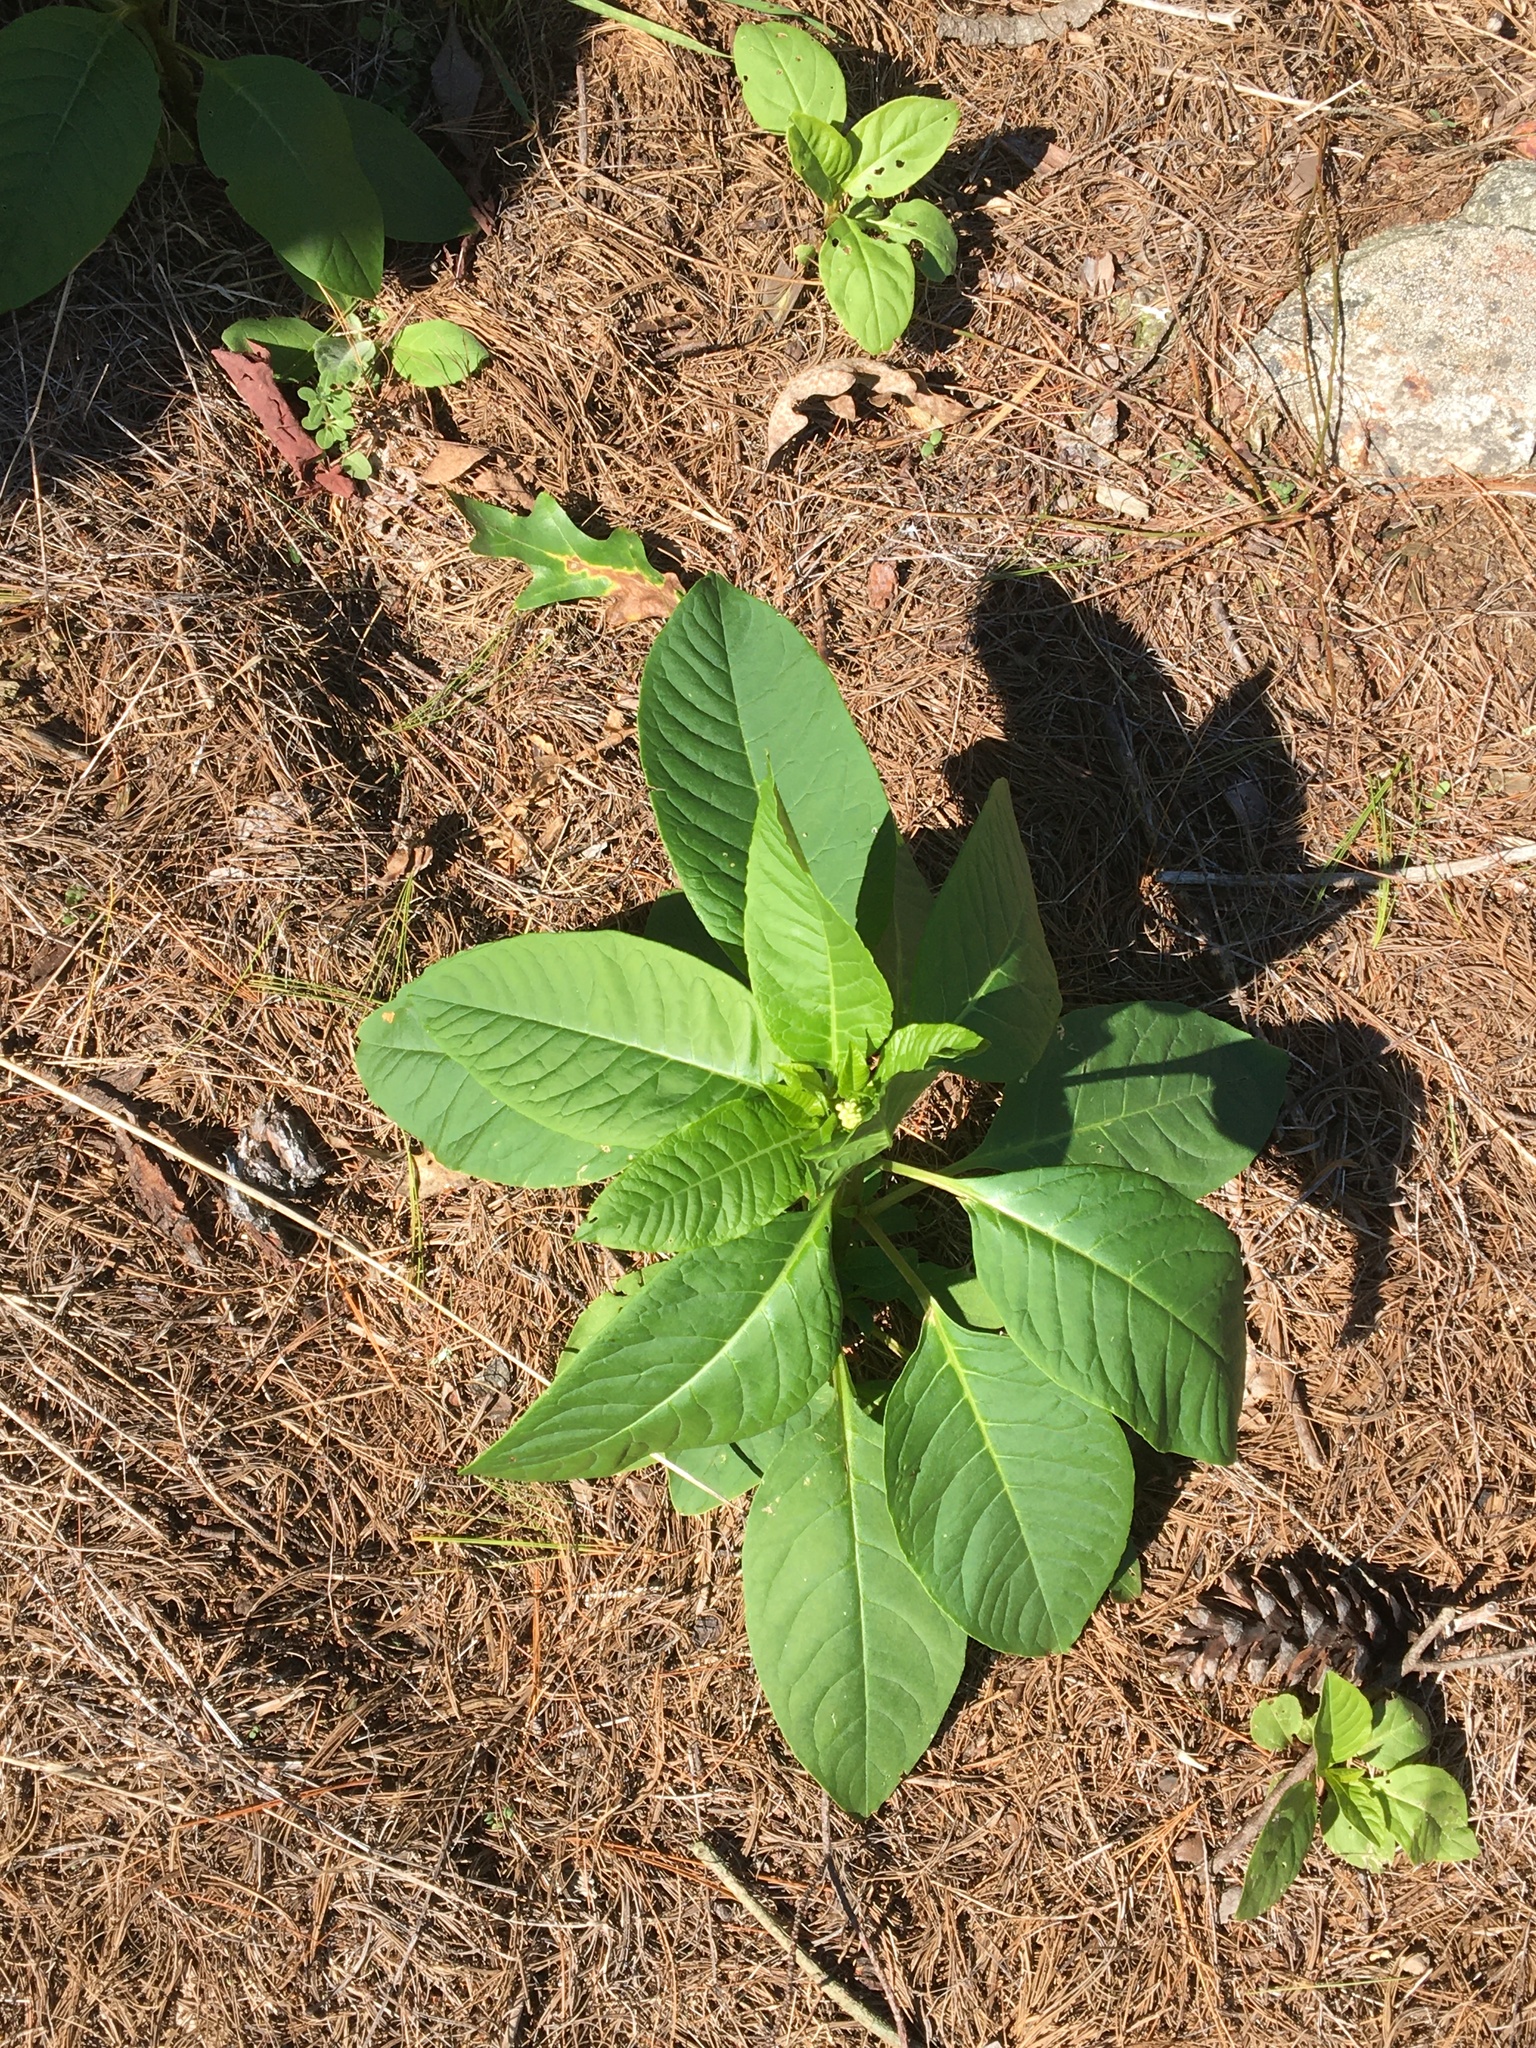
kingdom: Plantae
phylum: Tracheophyta
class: Magnoliopsida
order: Caryophyllales
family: Phytolaccaceae
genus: Phytolacca
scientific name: Phytolacca americana
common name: American pokeweed
